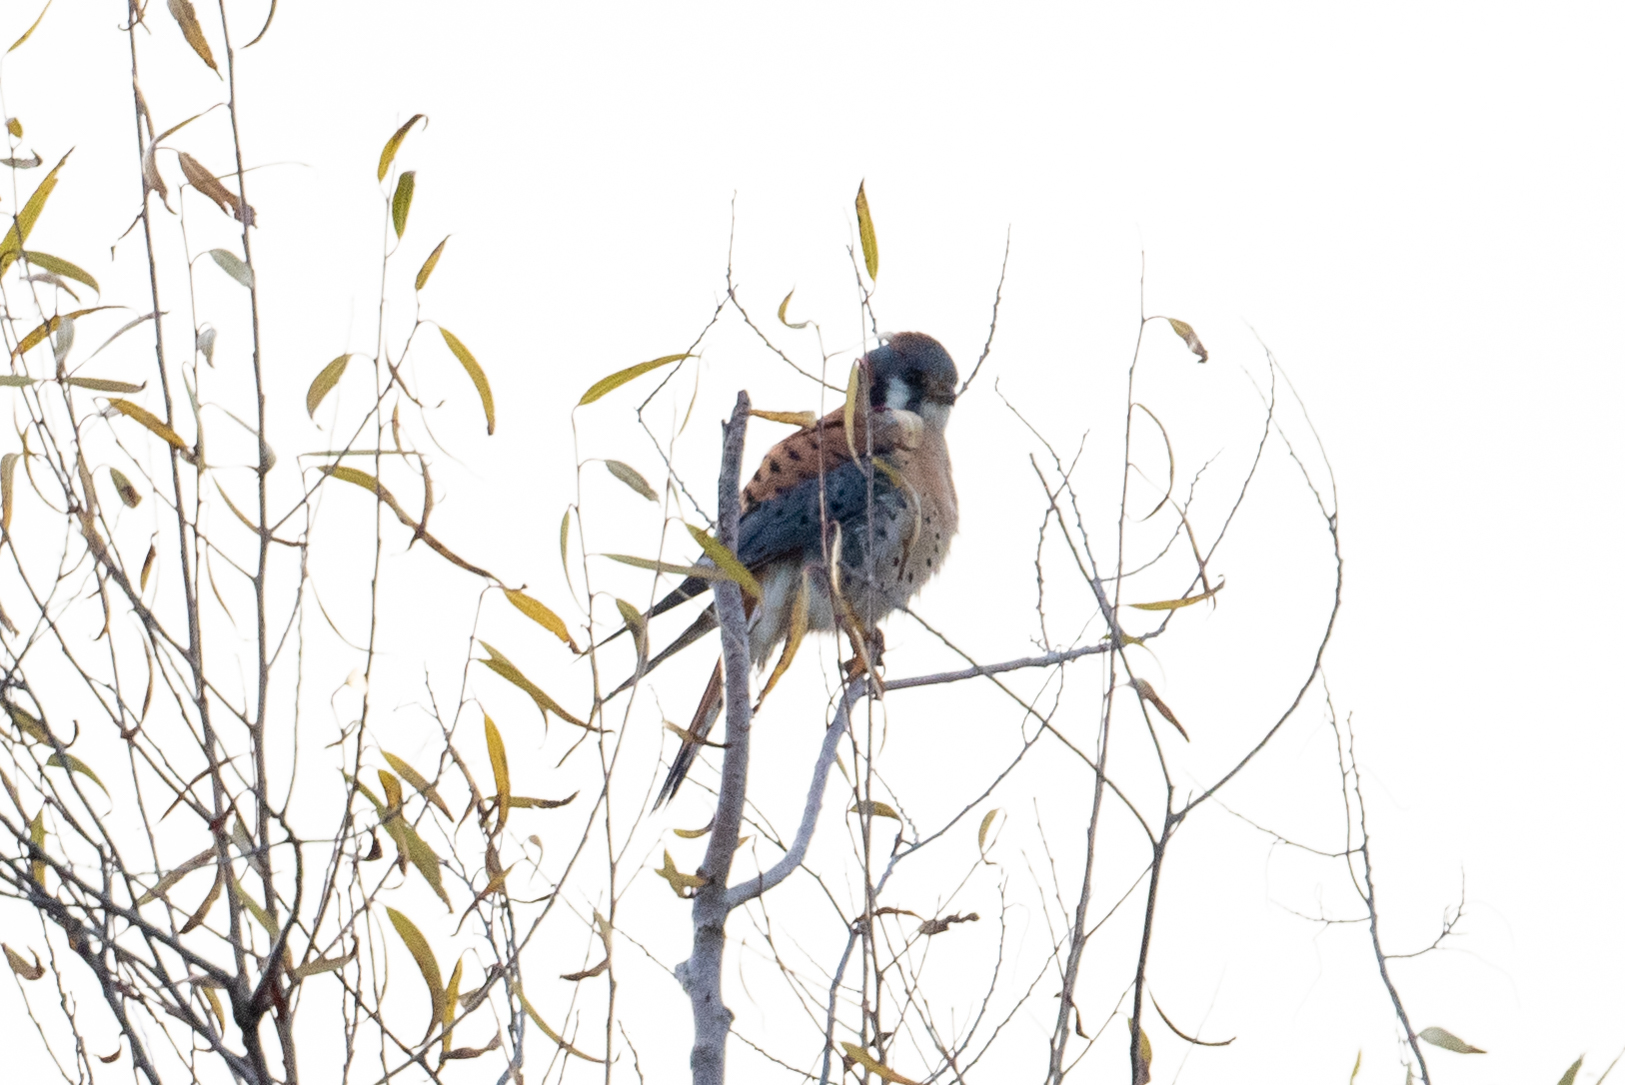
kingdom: Animalia
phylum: Chordata
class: Aves
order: Falconiformes
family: Falconidae
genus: Falco
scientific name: Falco sparverius
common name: American kestrel
